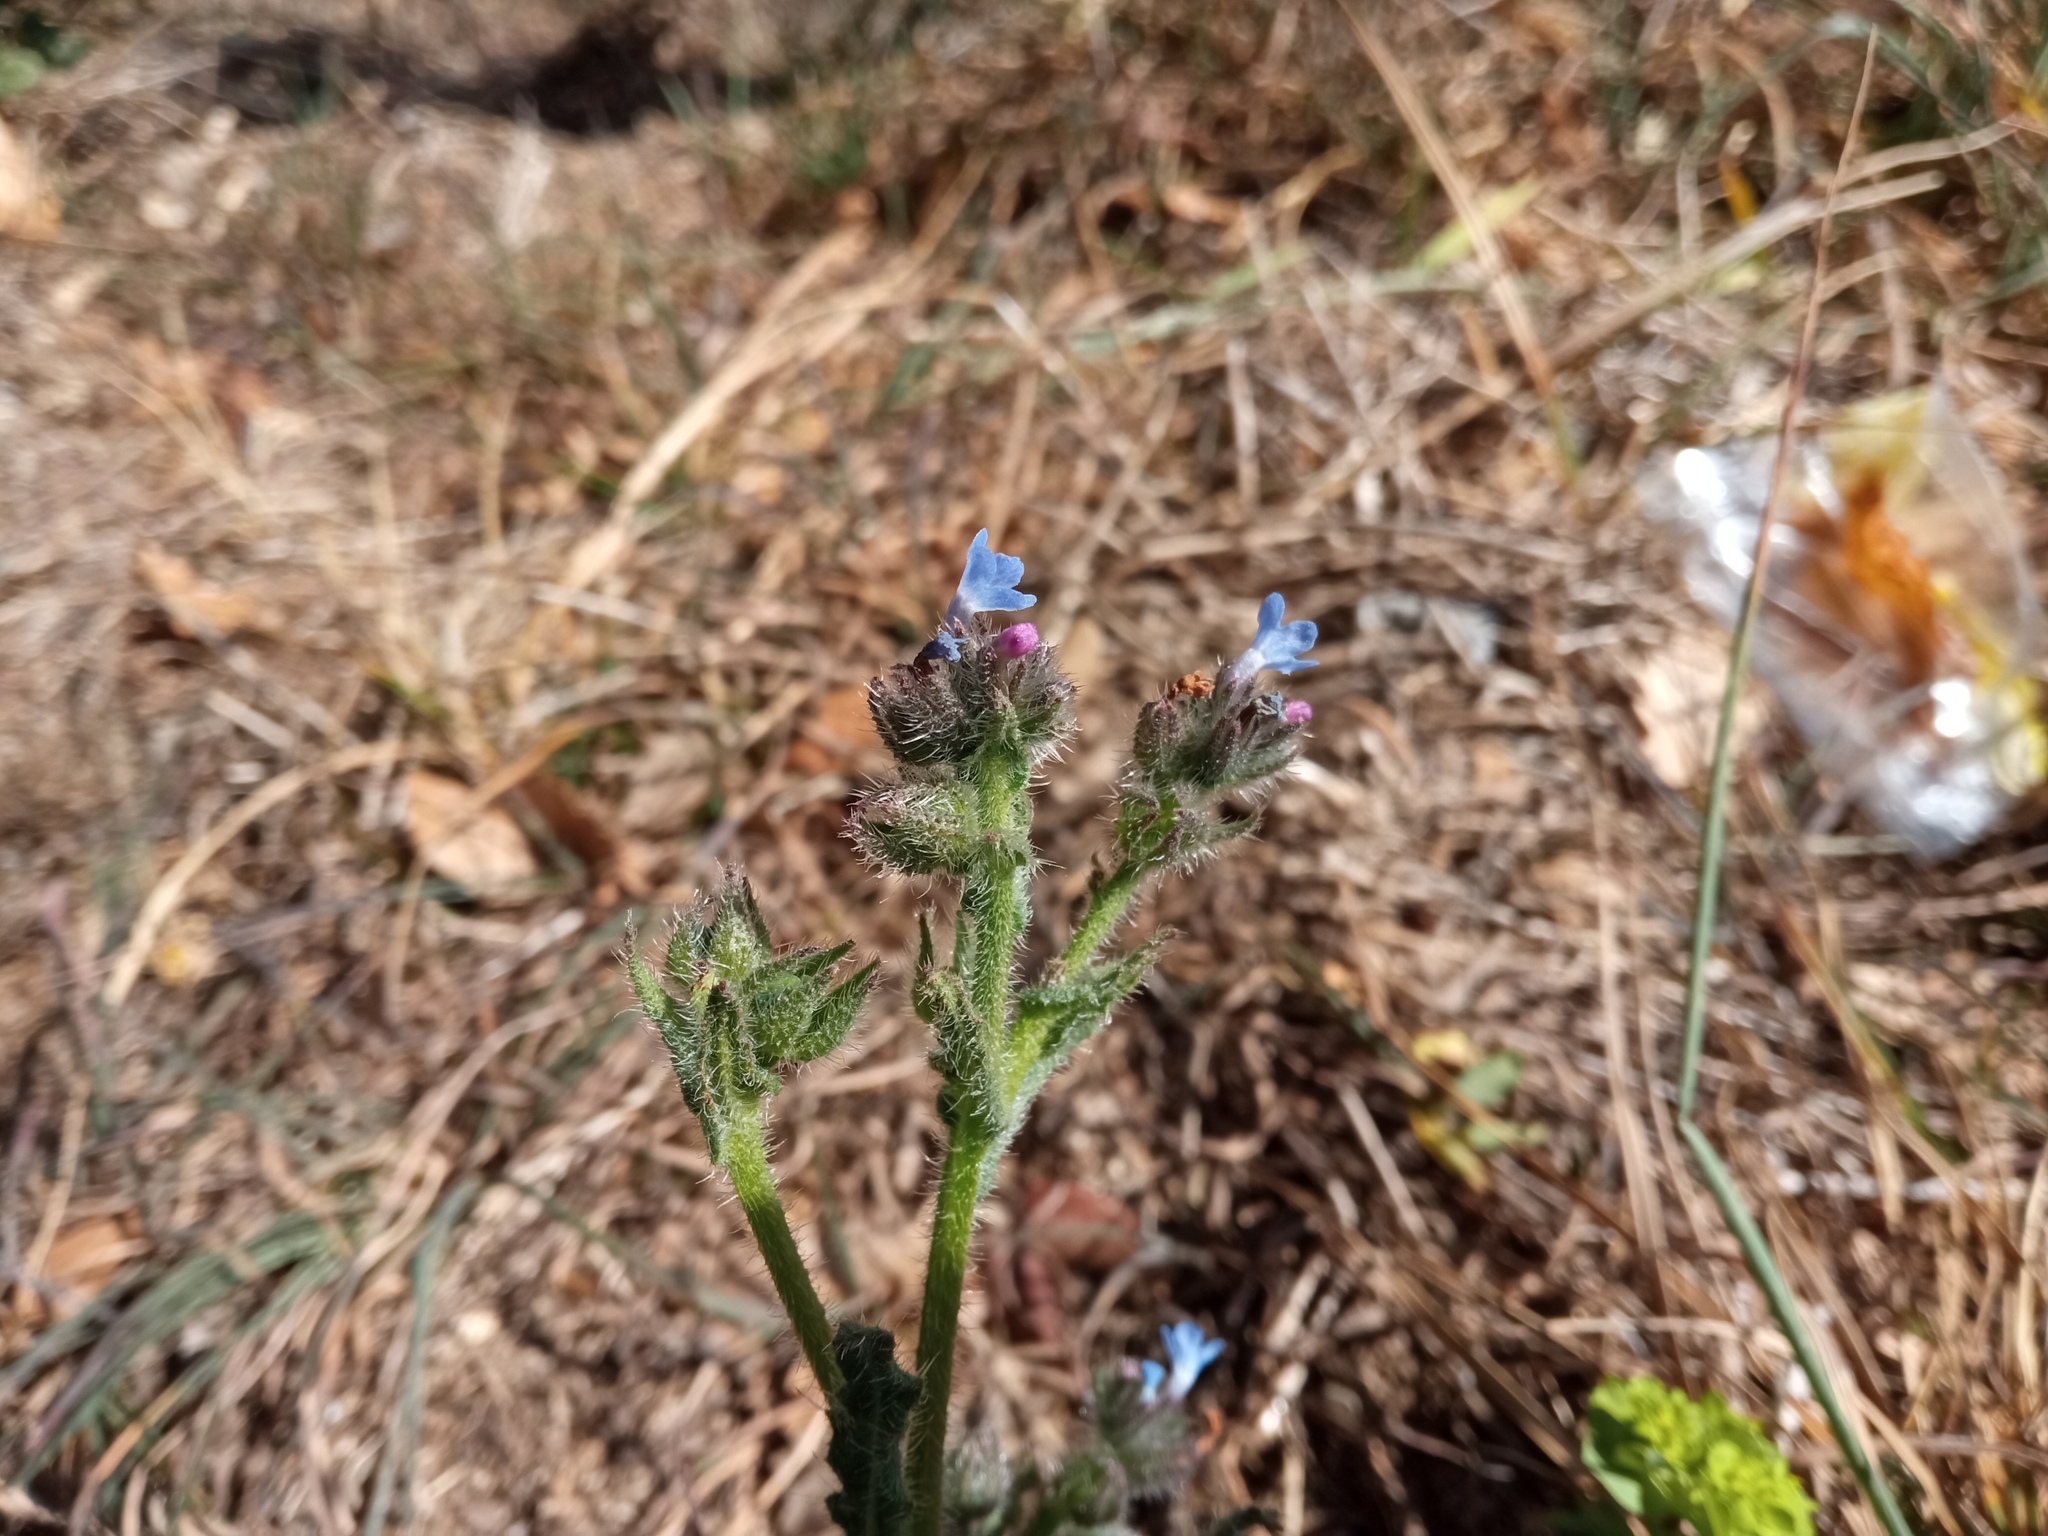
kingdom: Plantae
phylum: Tracheophyta
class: Magnoliopsida
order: Boraginales
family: Boraginaceae
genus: Lycopsis
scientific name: Lycopsis arvensis
